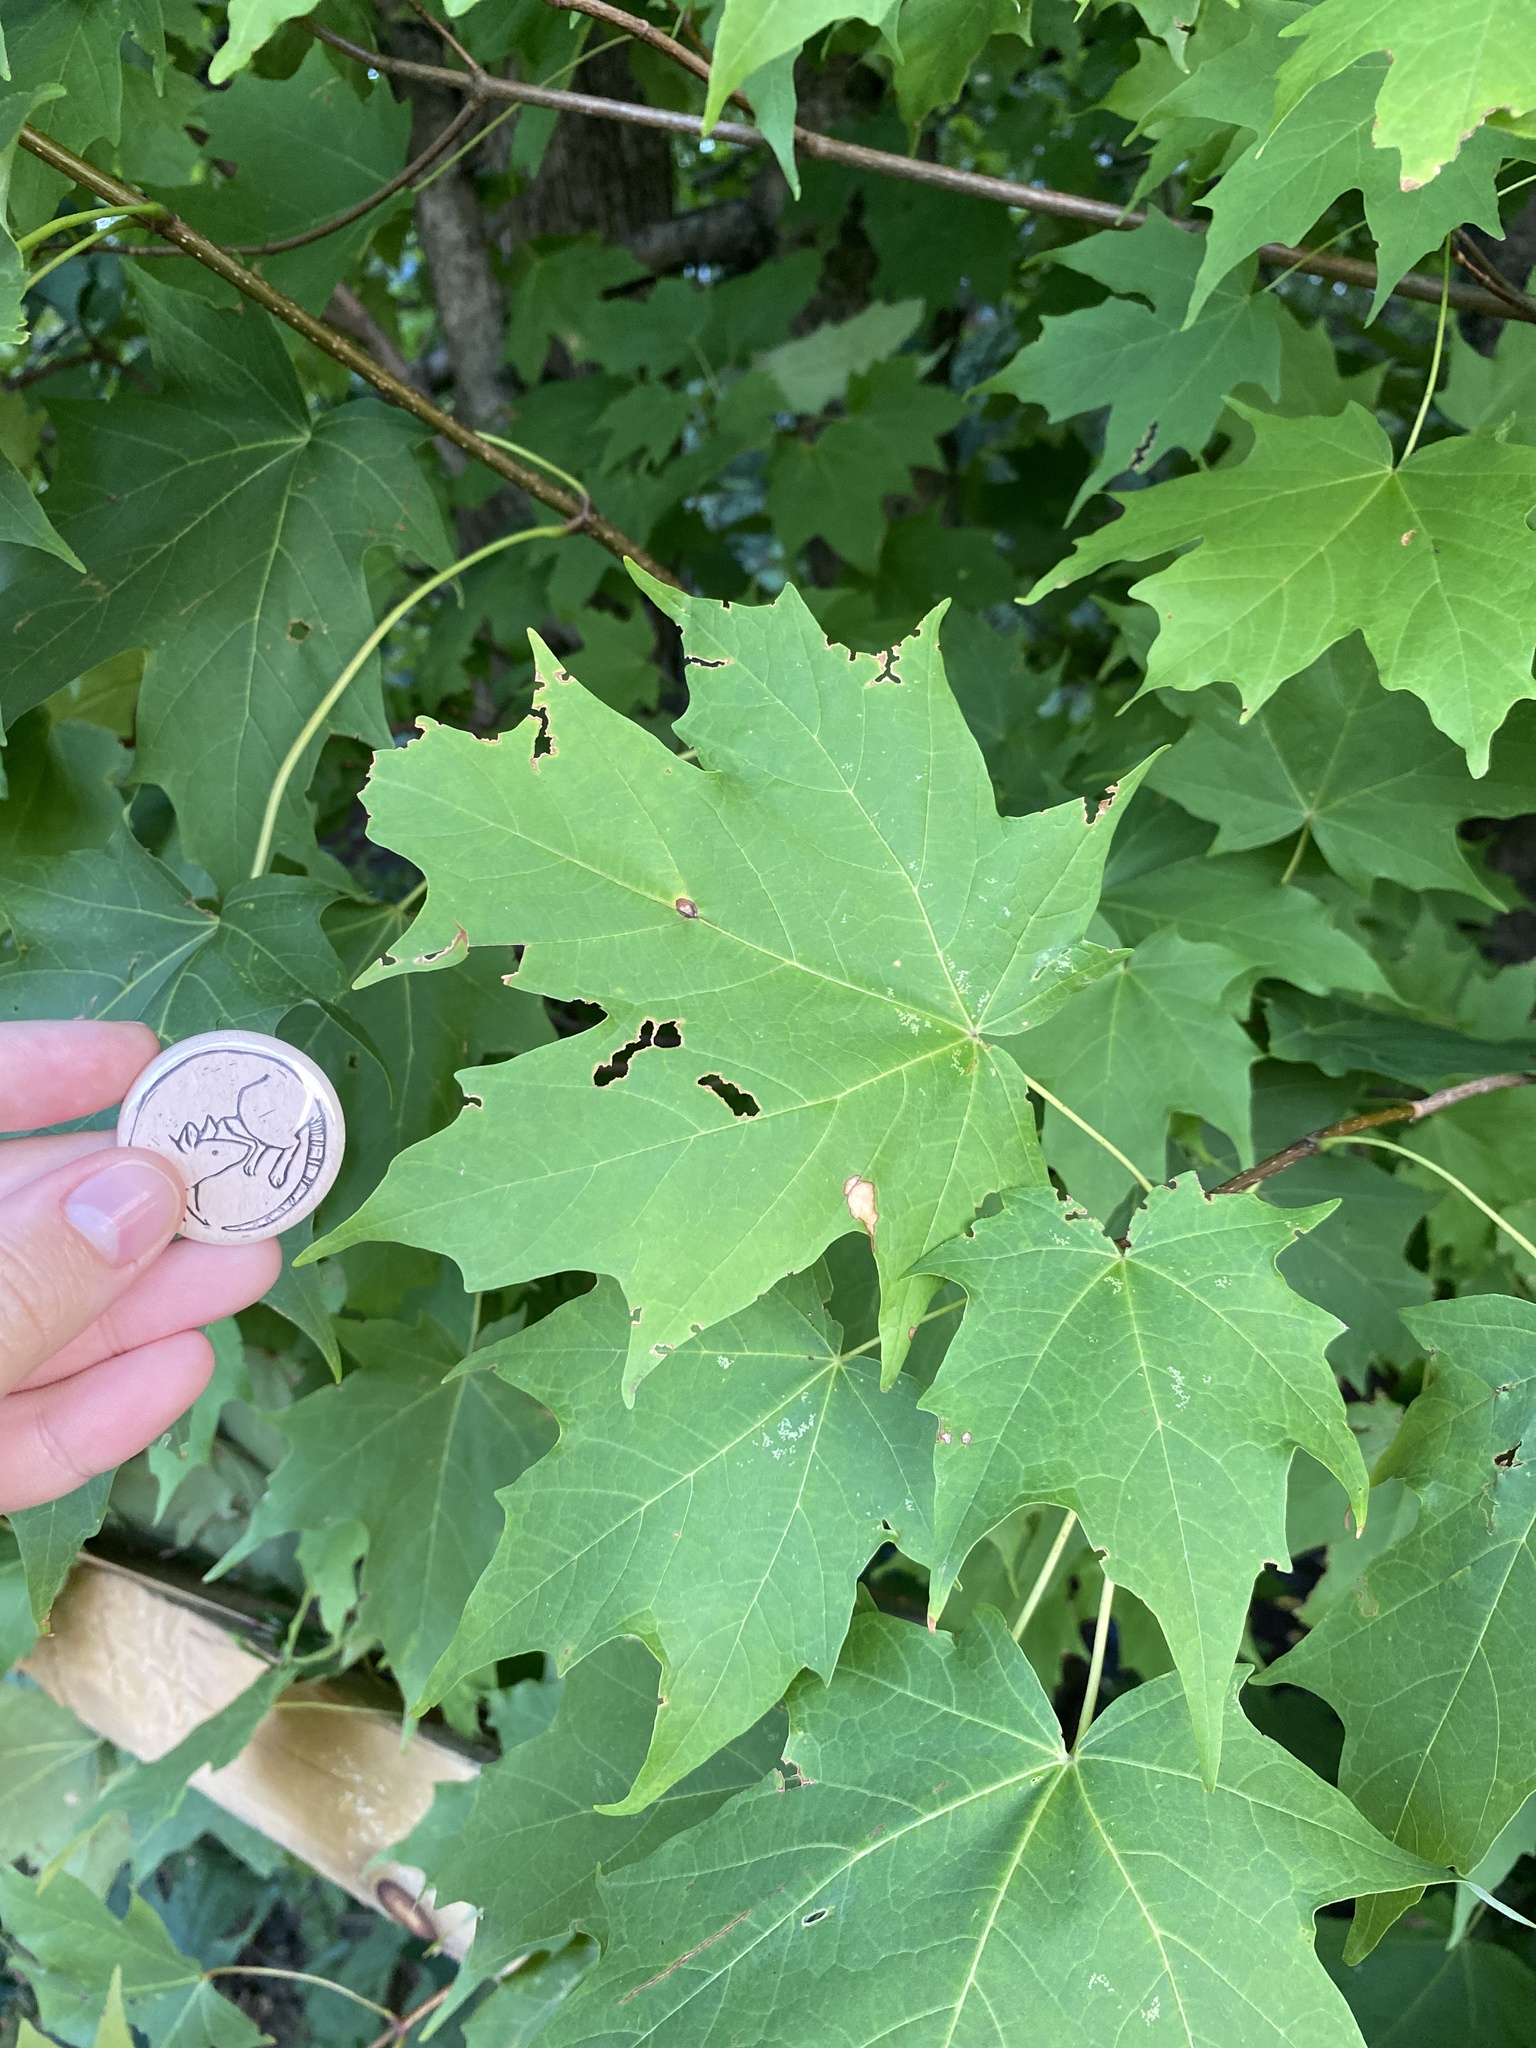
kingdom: Plantae
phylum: Tracheophyta
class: Magnoliopsida
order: Sapindales
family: Sapindaceae
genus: Acer
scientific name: Acer saccharum
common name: Sugar maple
